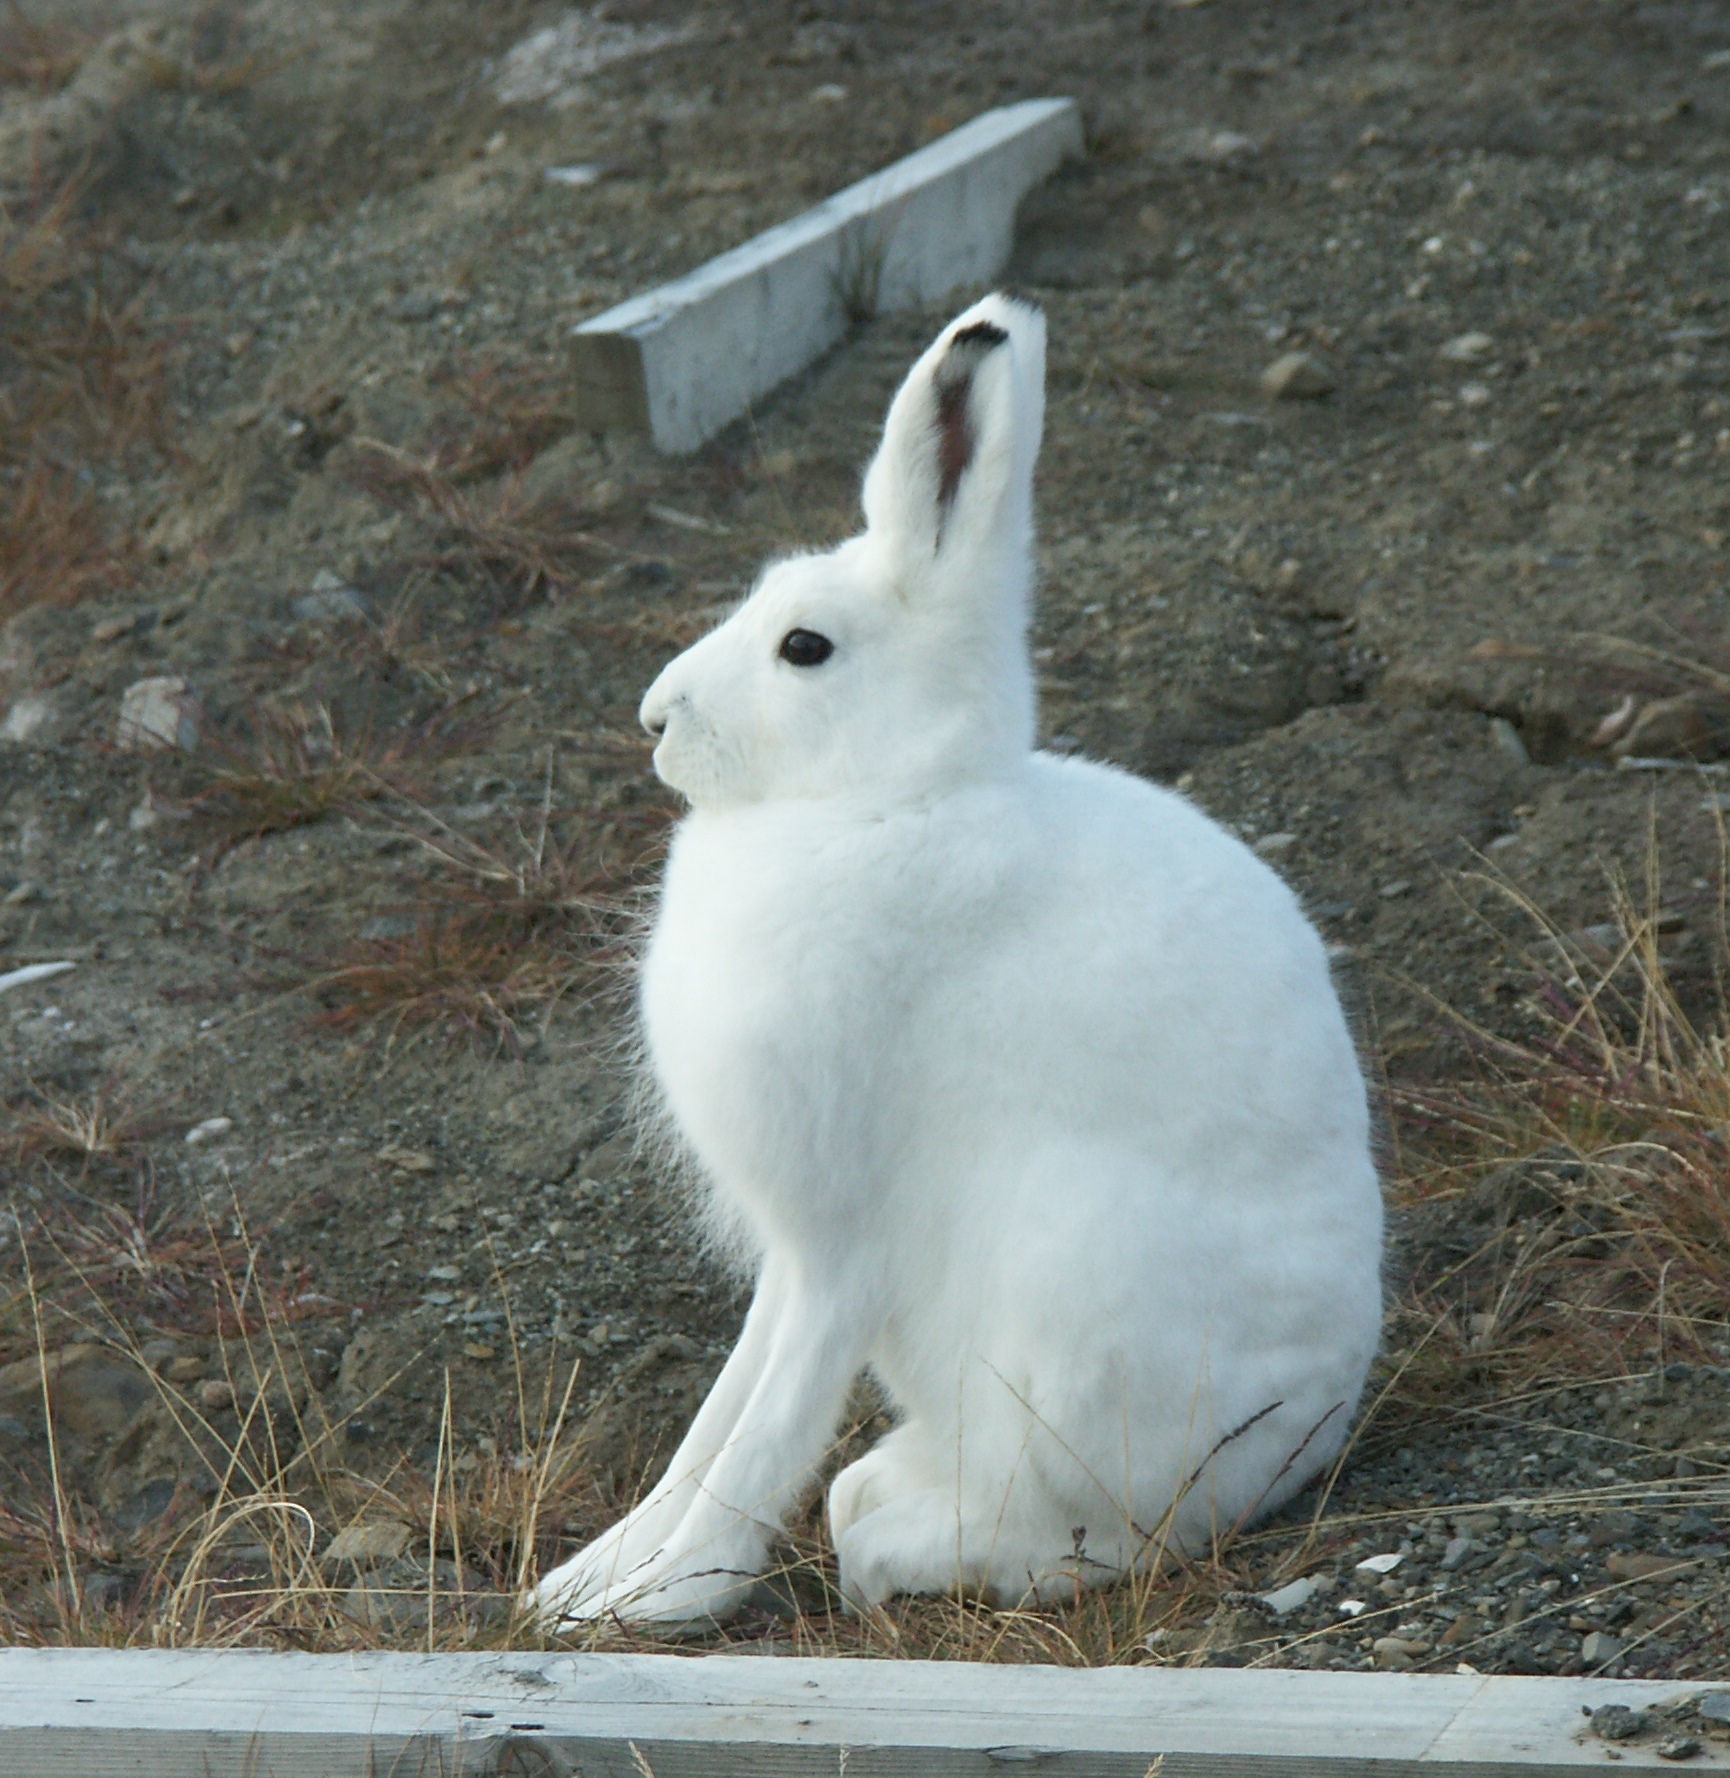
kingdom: Animalia
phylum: Chordata
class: Mammalia
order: Lagomorpha
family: Leporidae
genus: Lepus
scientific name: Lepus arcticus
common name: Arctic hare
